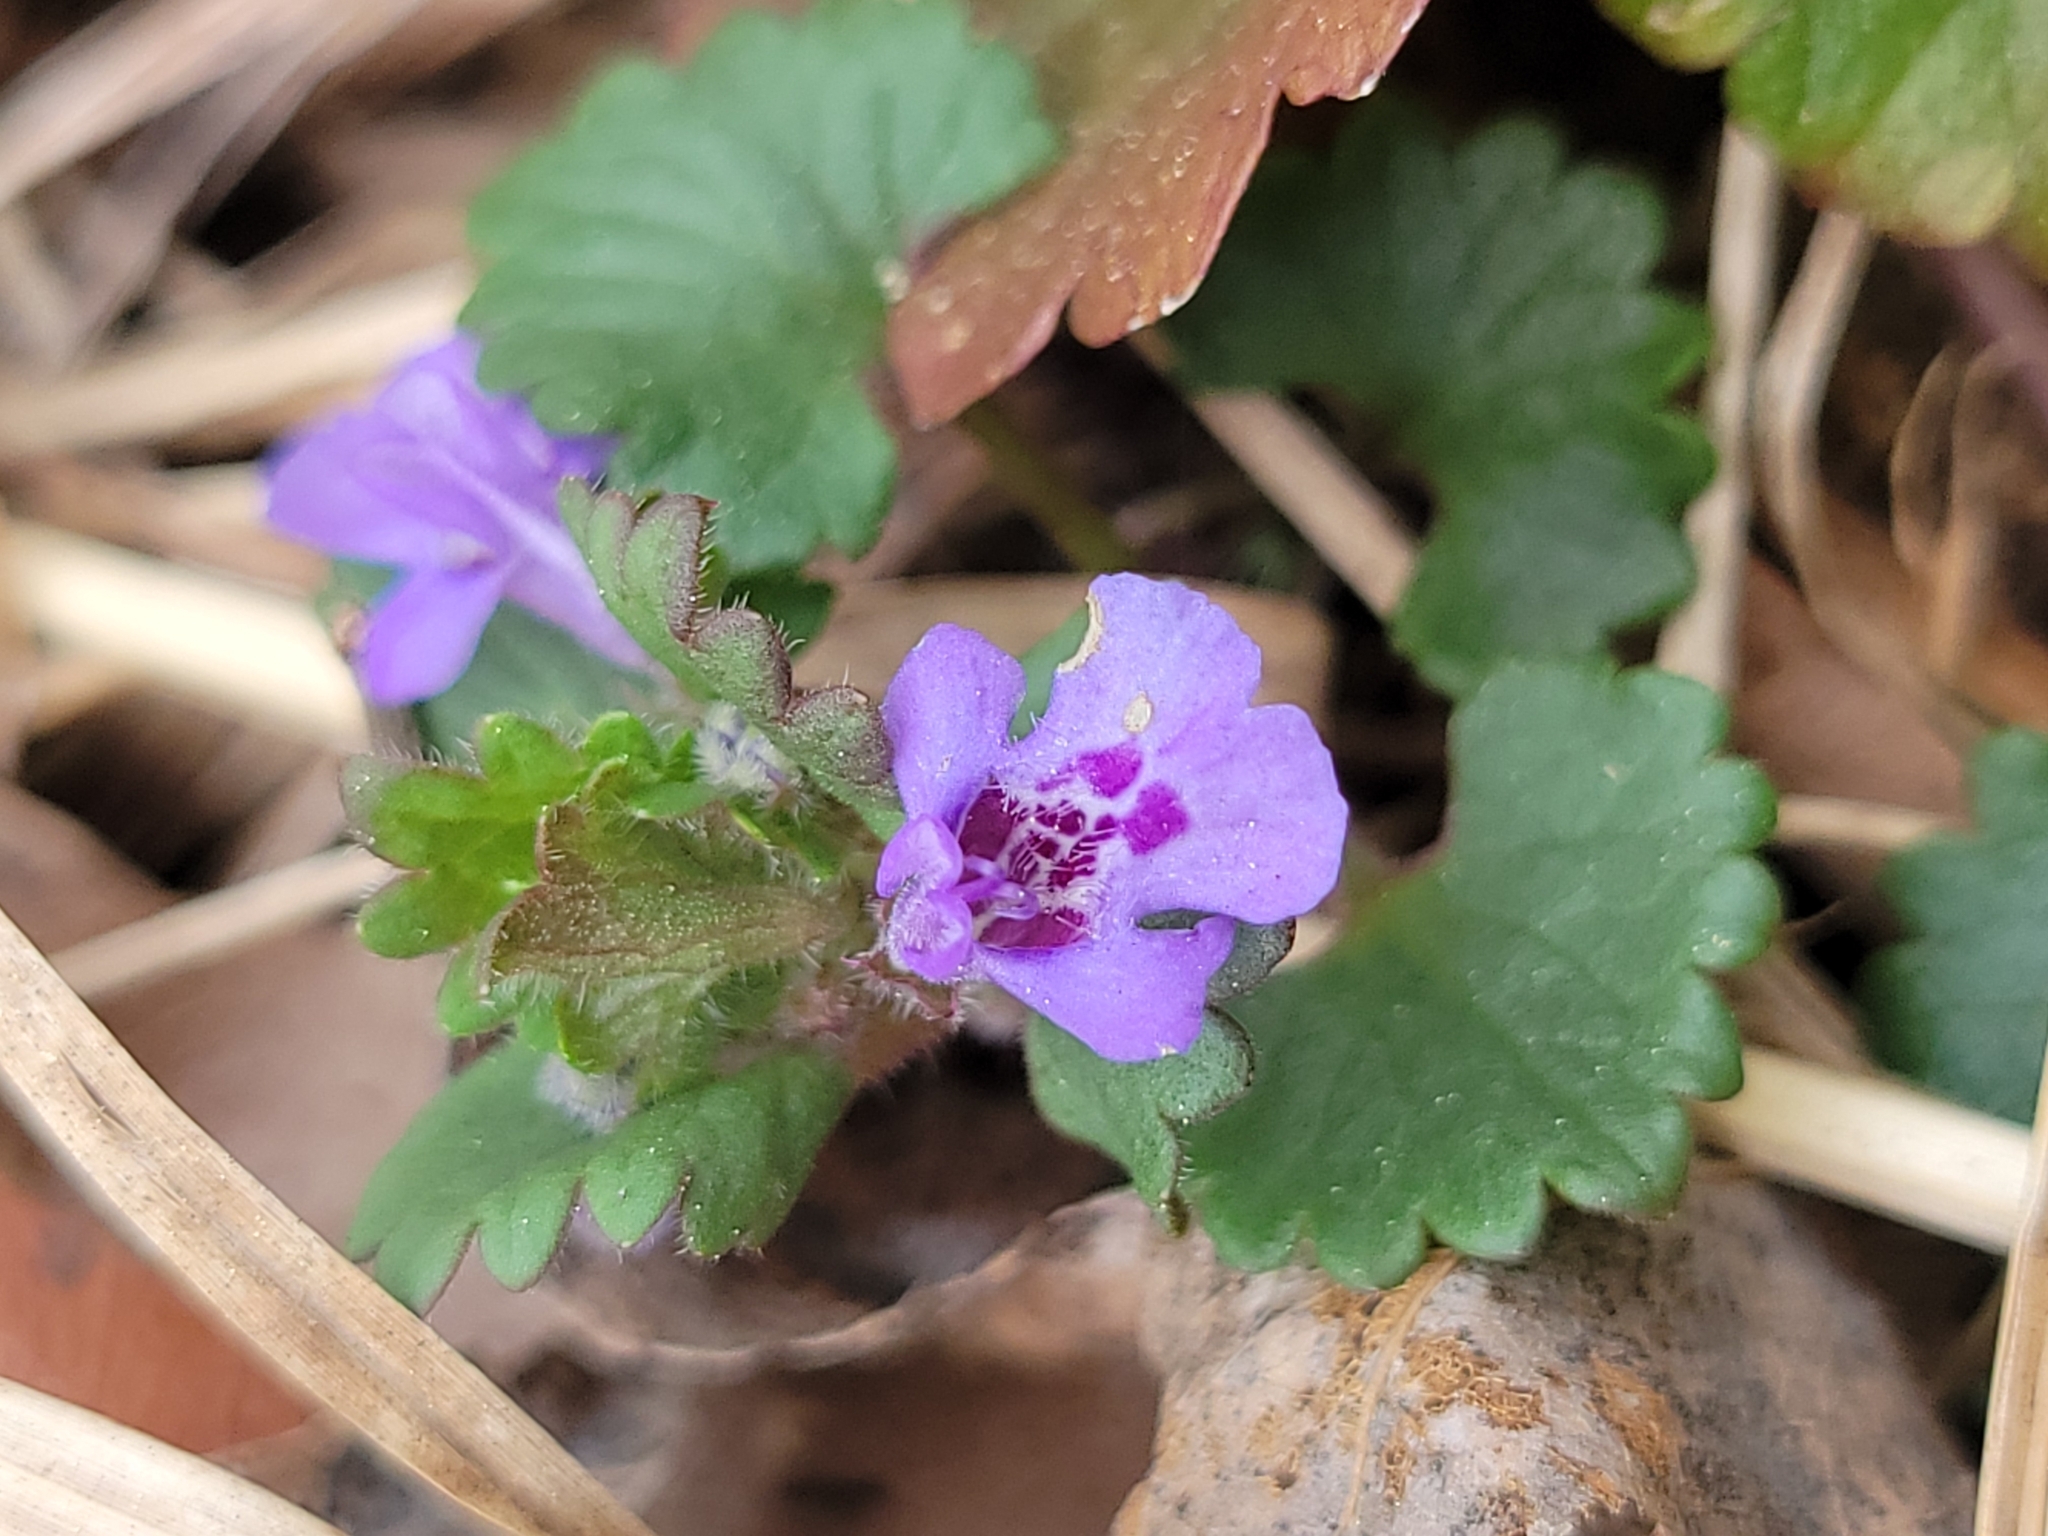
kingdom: Plantae
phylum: Tracheophyta
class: Magnoliopsida
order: Lamiales
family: Lamiaceae
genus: Glechoma
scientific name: Glechoma hederacea
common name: Ground ivy
